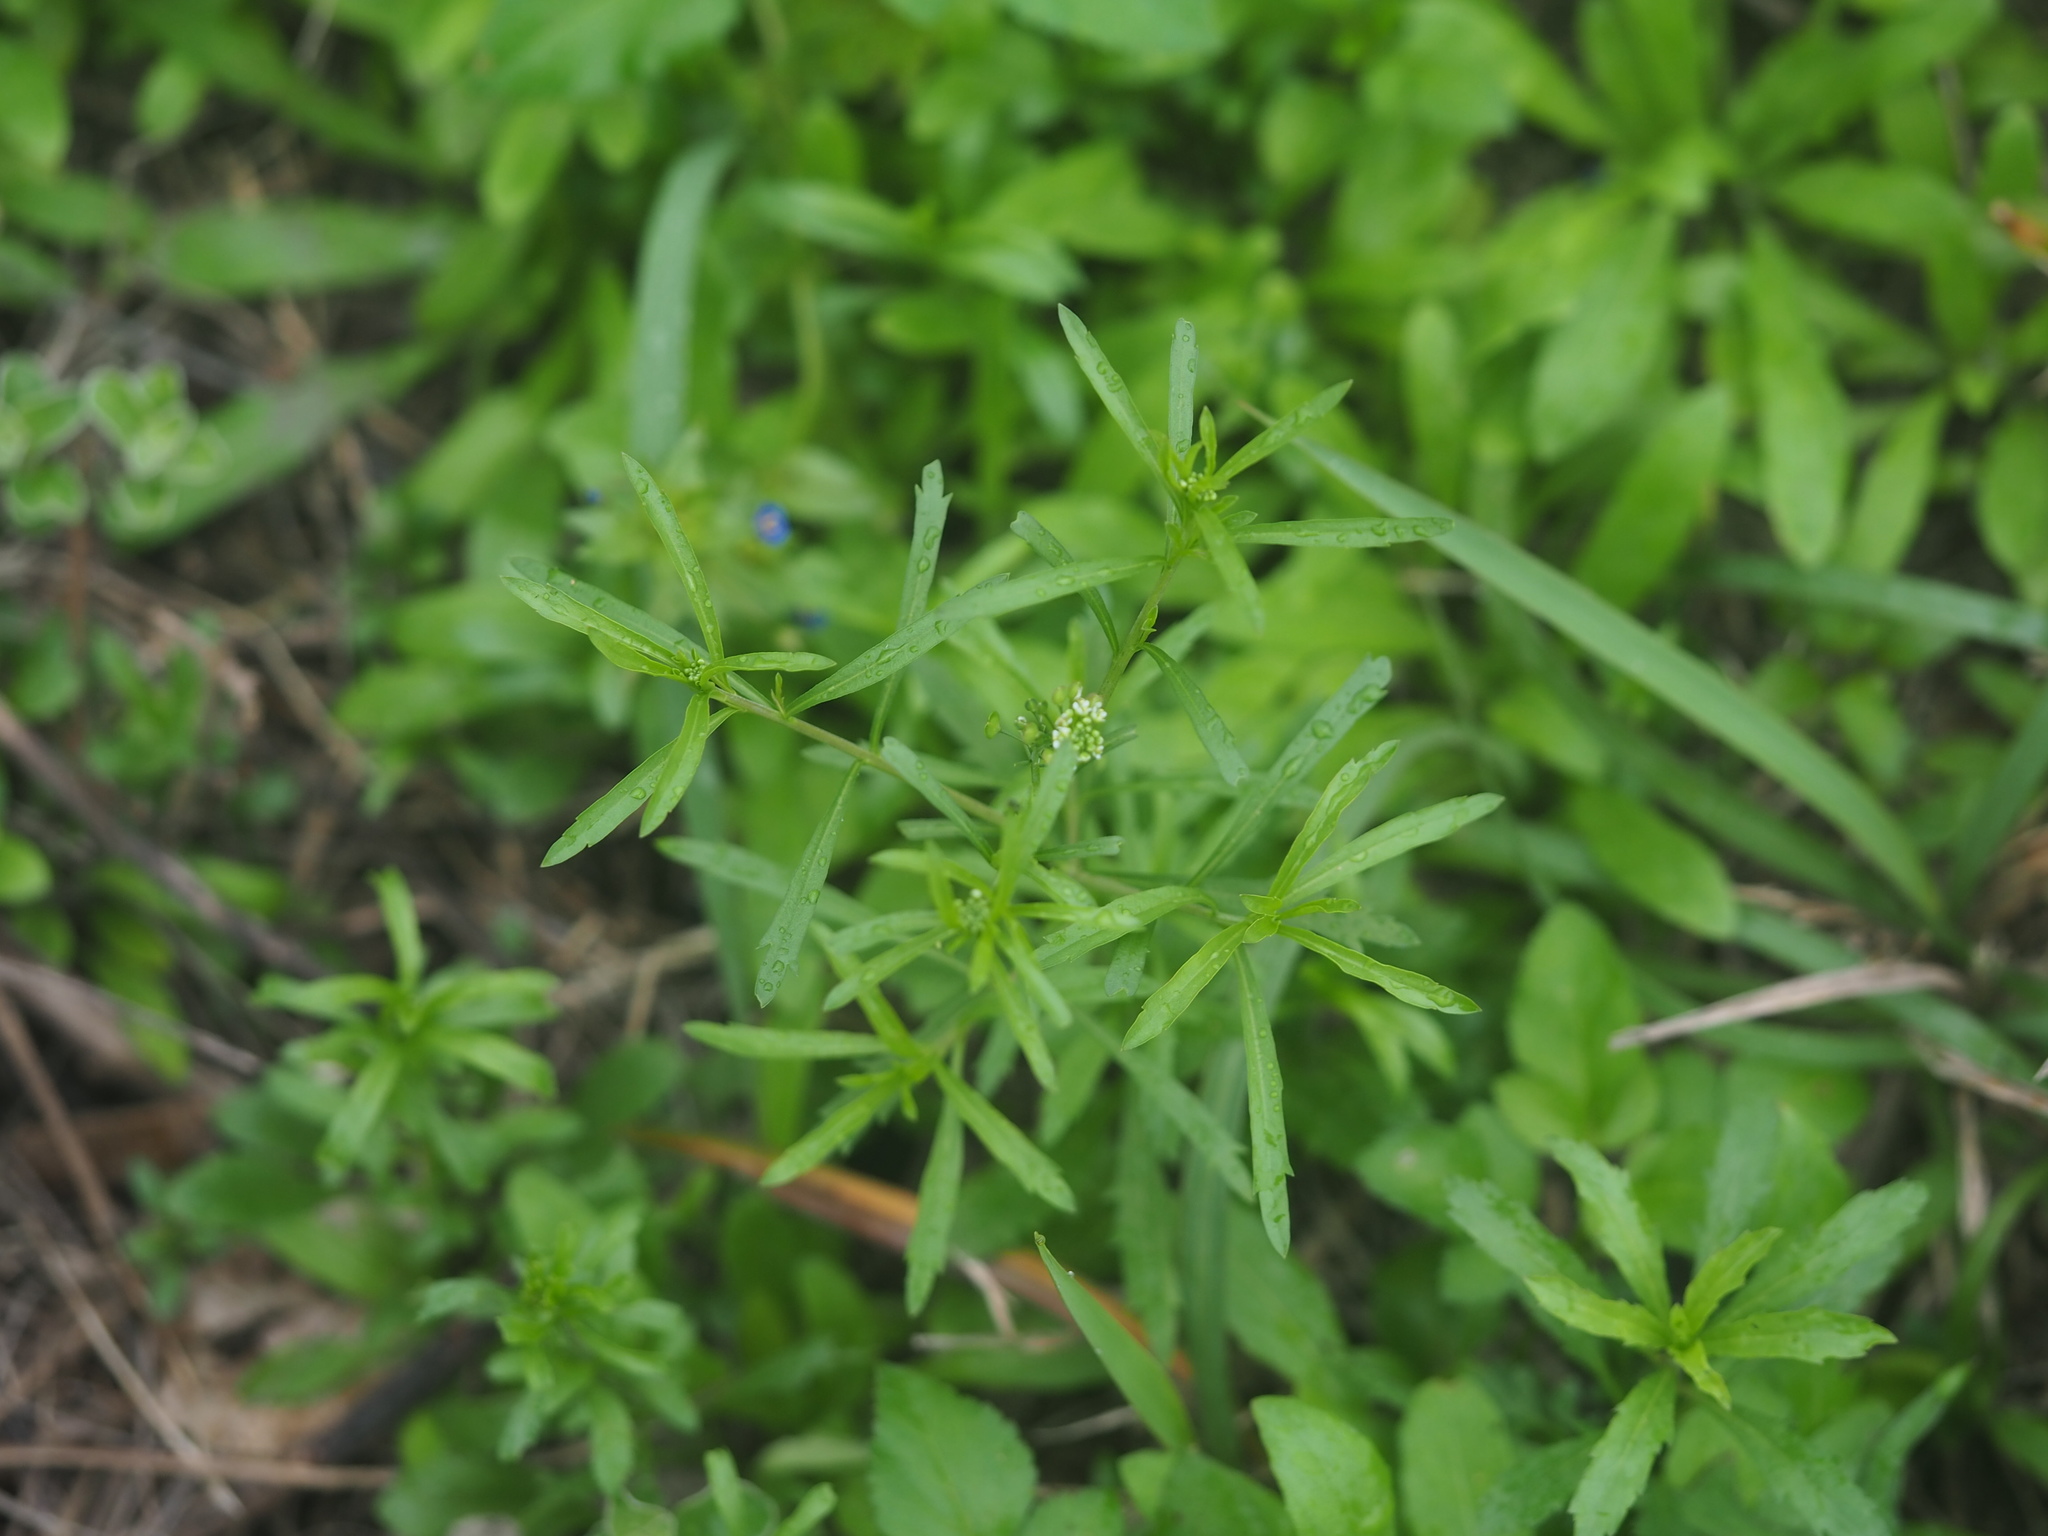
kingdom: Plantae
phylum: Tracheophyta
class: Magnoliopsida
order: Brassicales
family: Brassicaceae
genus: Lepidium
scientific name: Lepidium virginicum
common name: Least pepperwort
